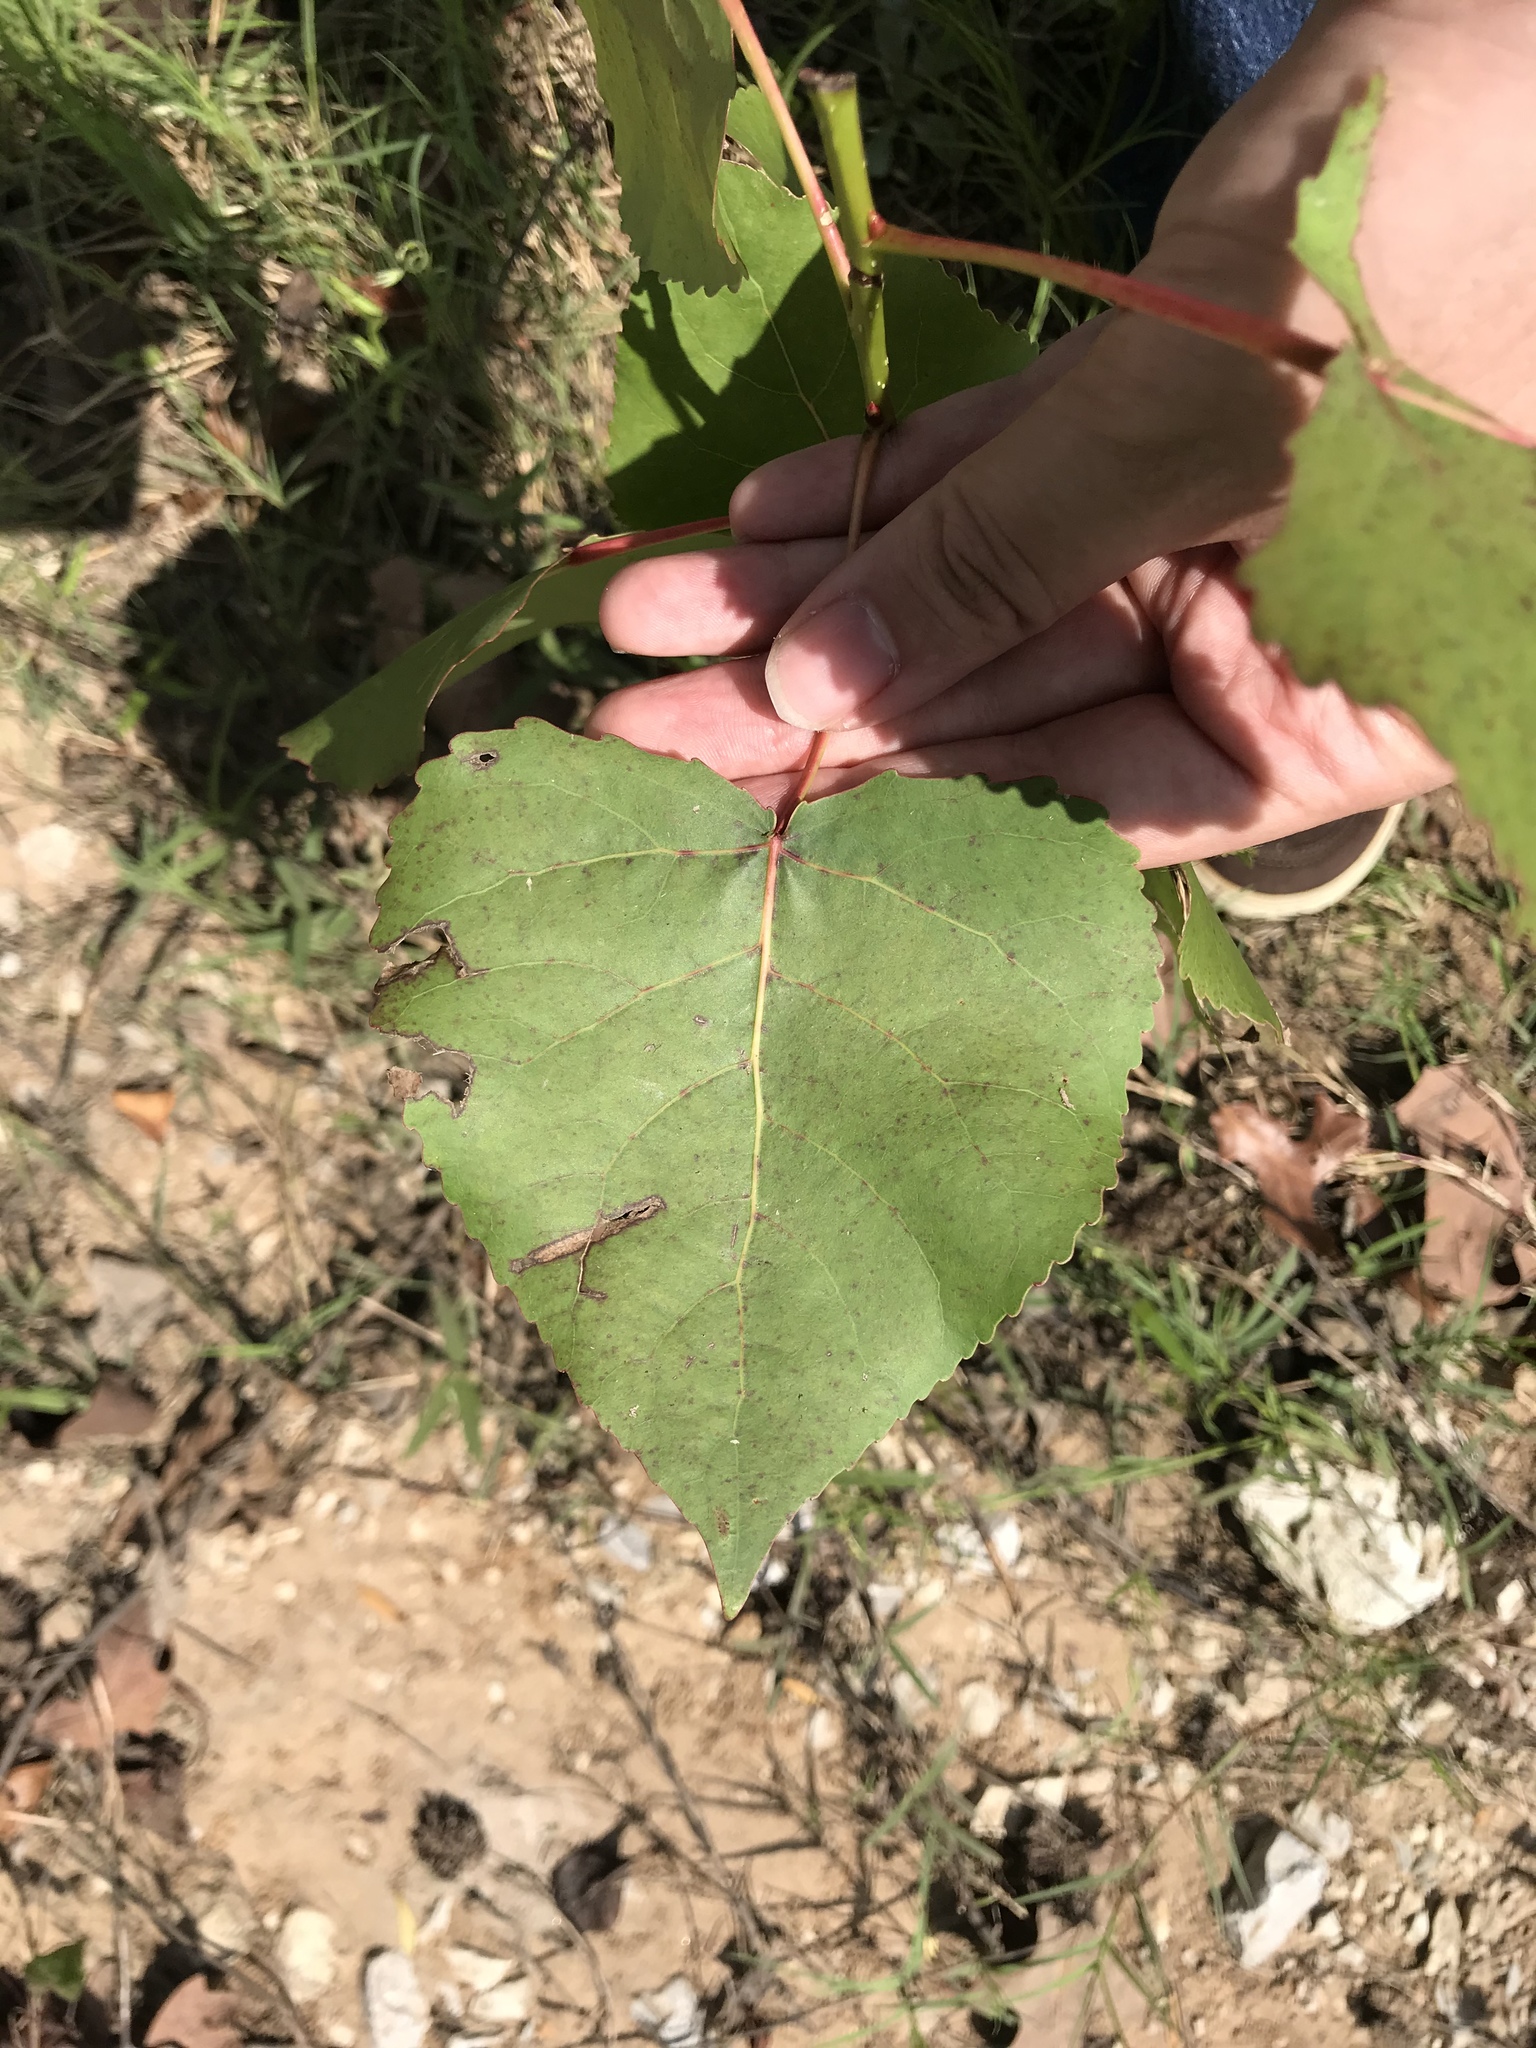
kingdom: Plantae
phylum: Tracheophyta
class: Magnoliopsida
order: Malpighiales
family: Salicaceae
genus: Populus
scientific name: Populus deltoides
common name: Eastern cottonwood
